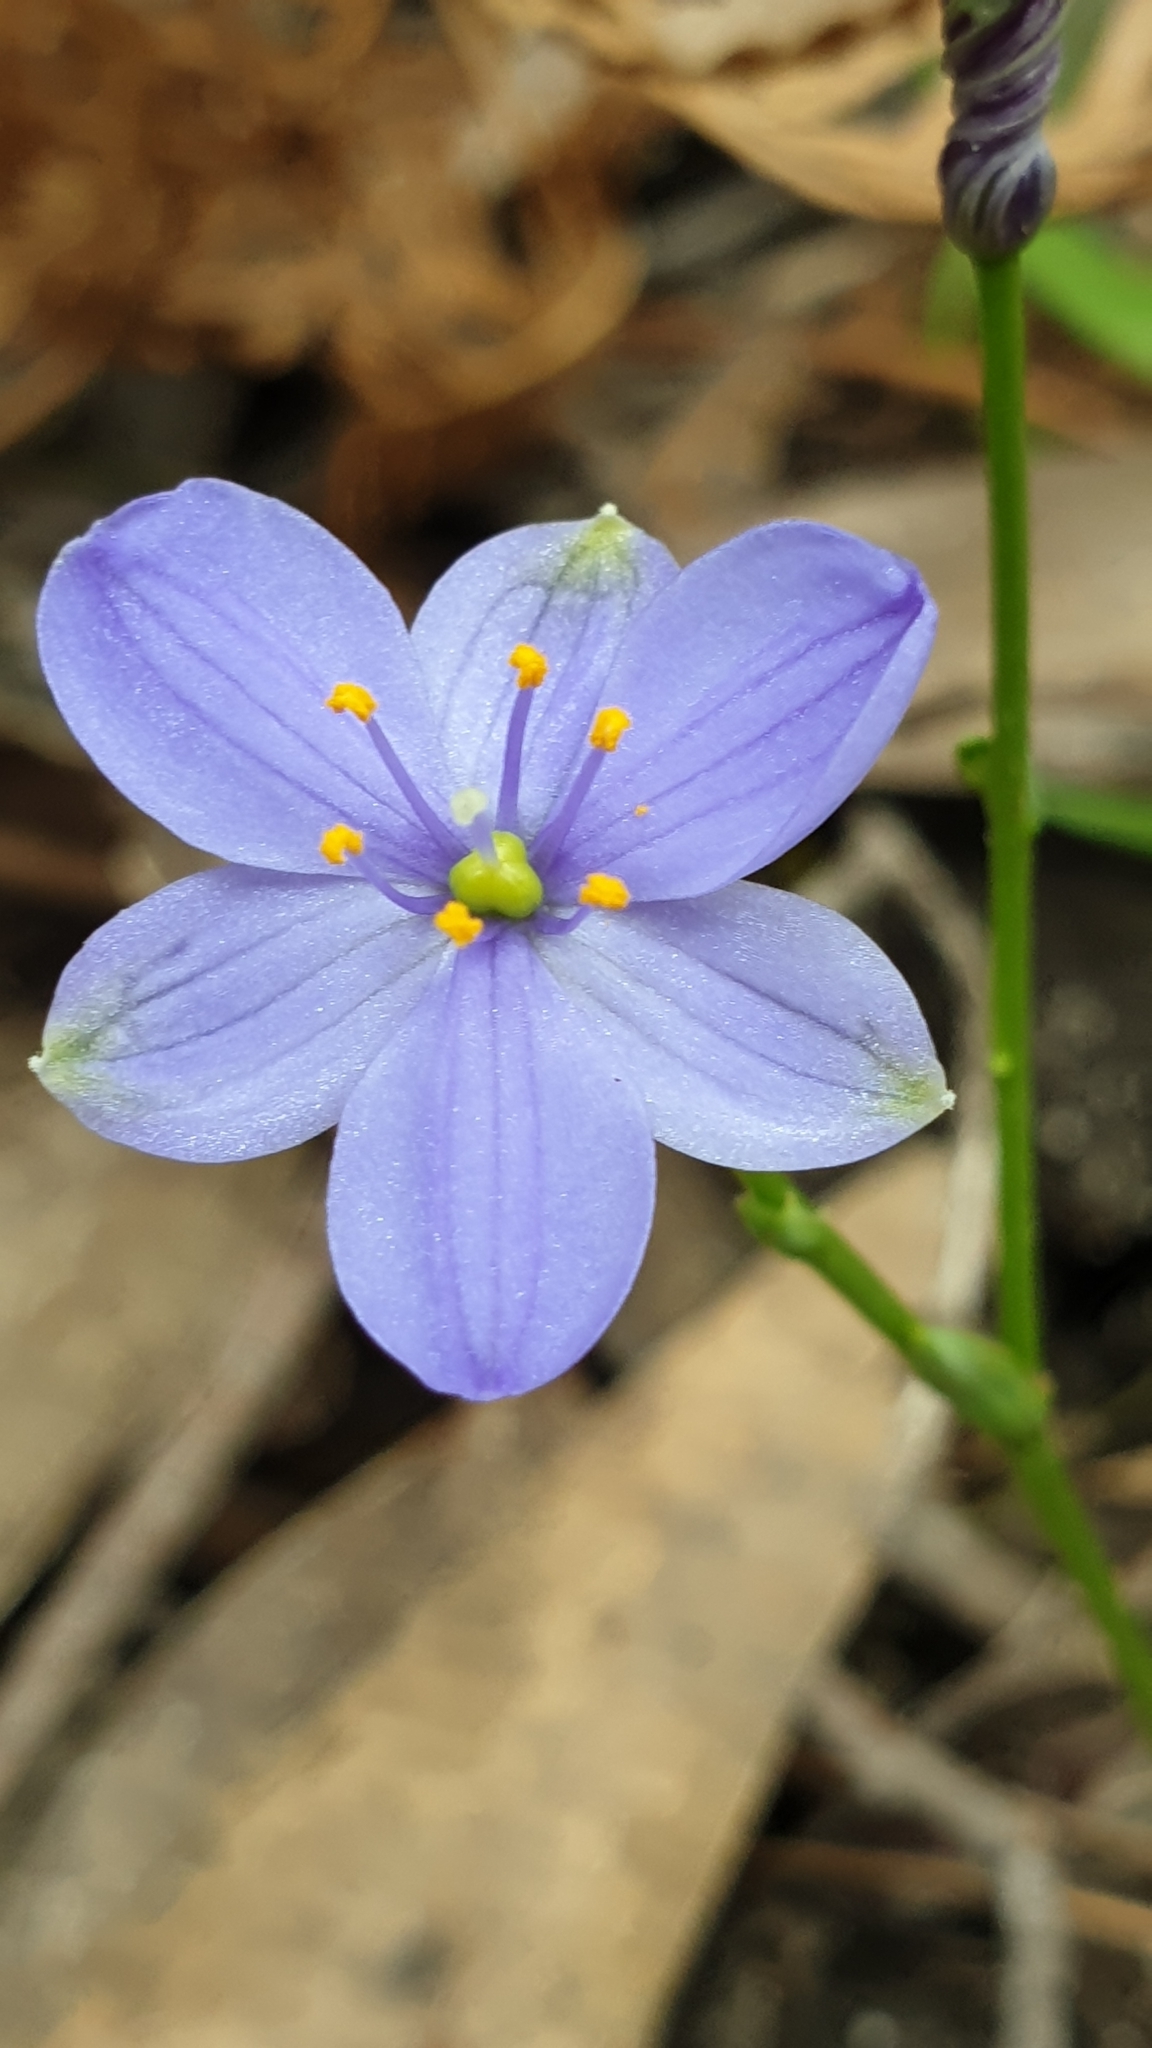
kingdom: Plantae
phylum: Tracheophyta
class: Liliopsida
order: Asparagales
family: Asphodelaceae
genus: Chamaescilla
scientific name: Chamaescilla corymbosa
